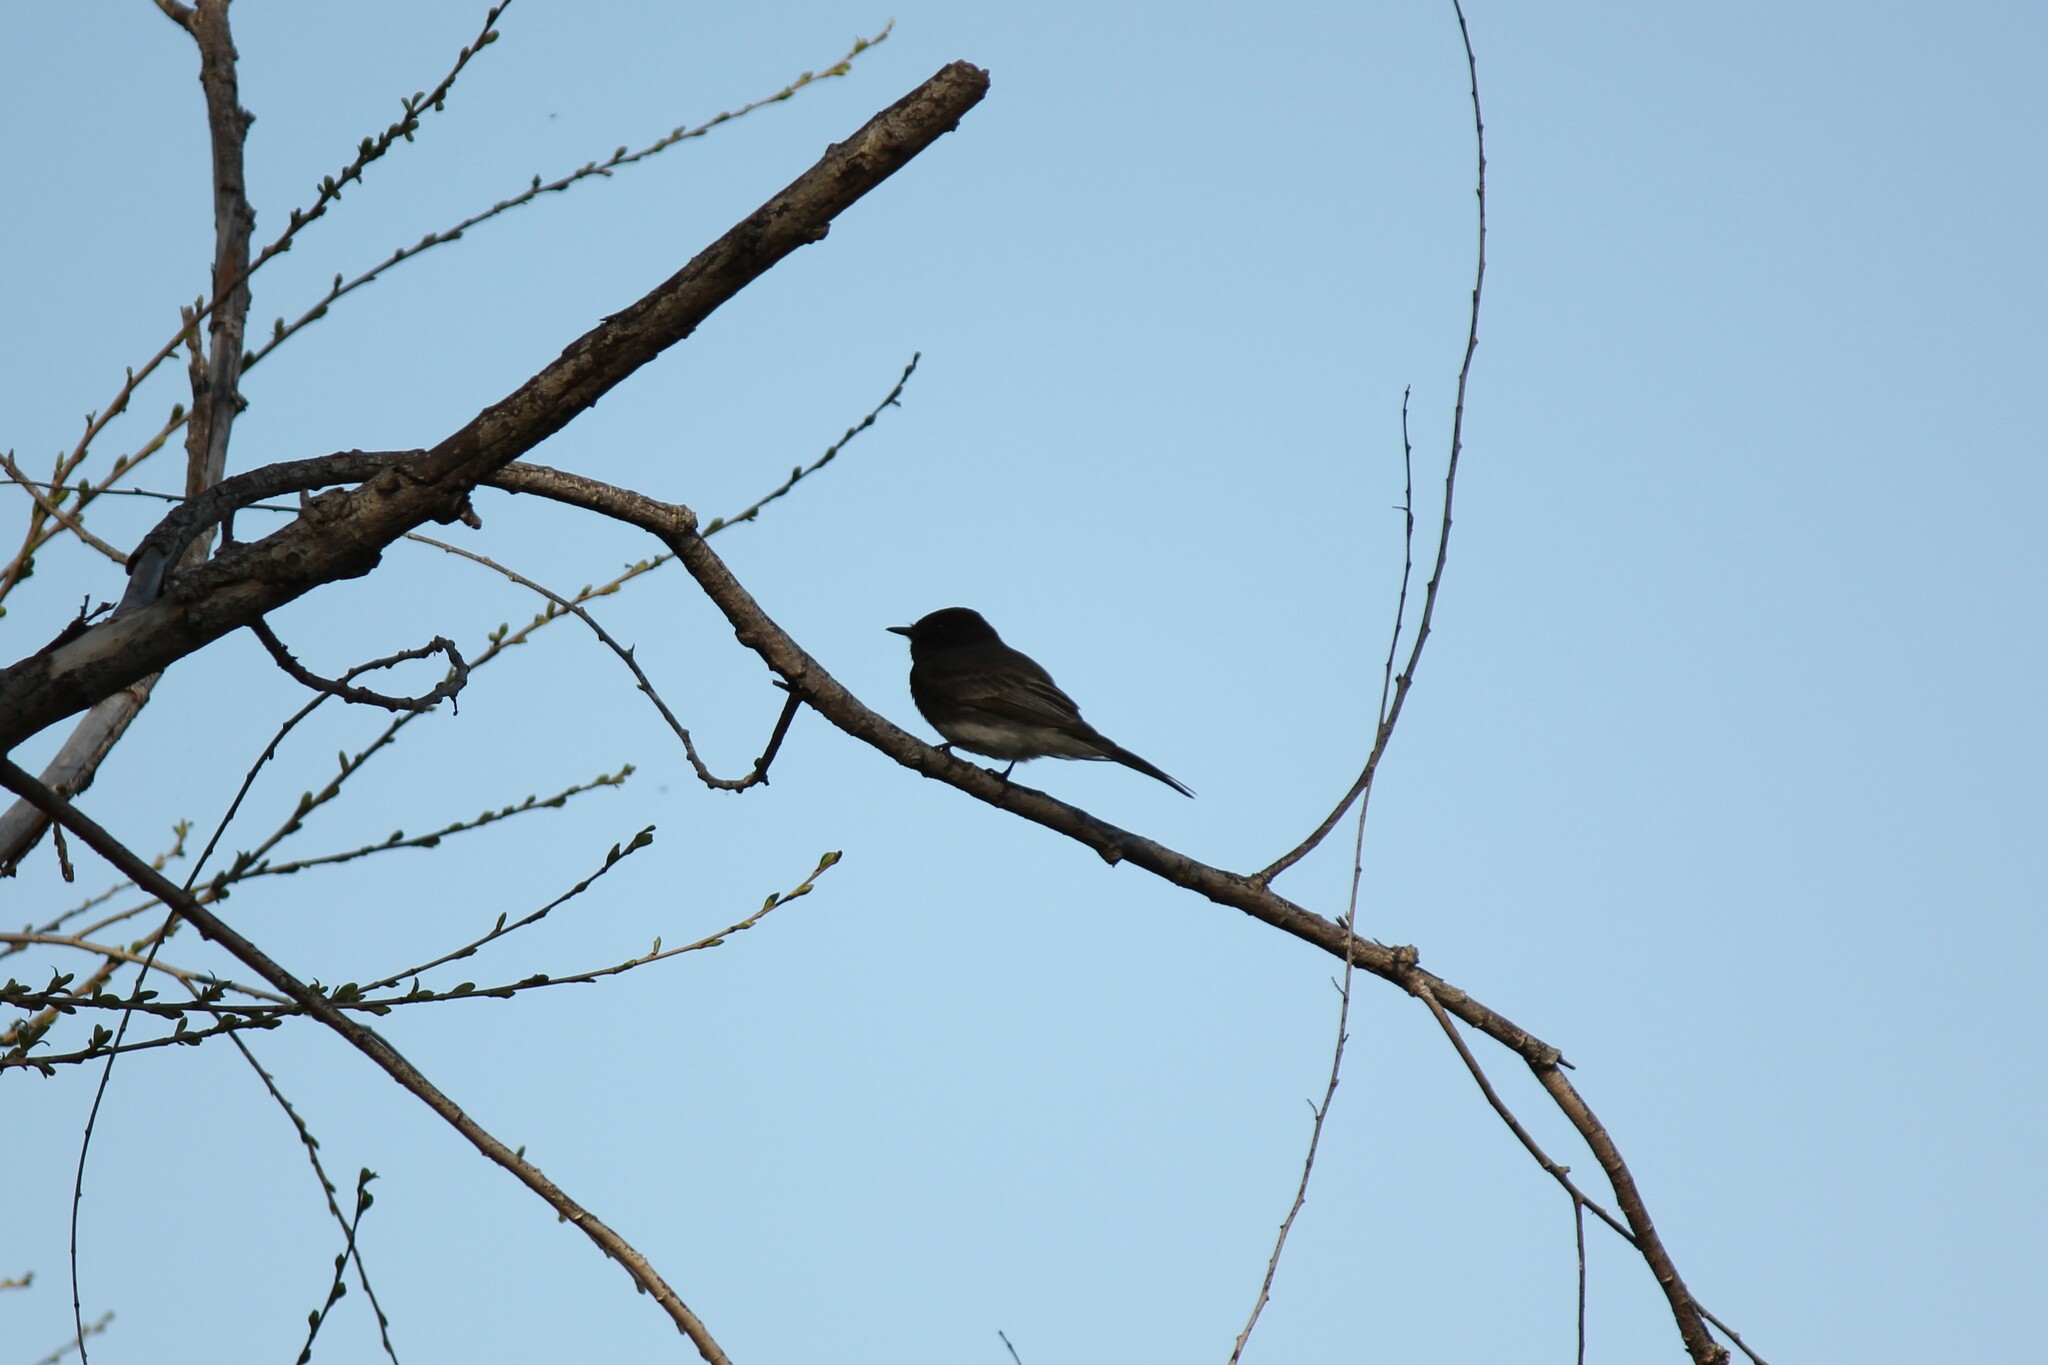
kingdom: Animalia
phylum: Chordata
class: Aves
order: Passeriformes
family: Tyrannidae
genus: Sayornis
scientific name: Sayornis nigricans
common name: Black phoebe
